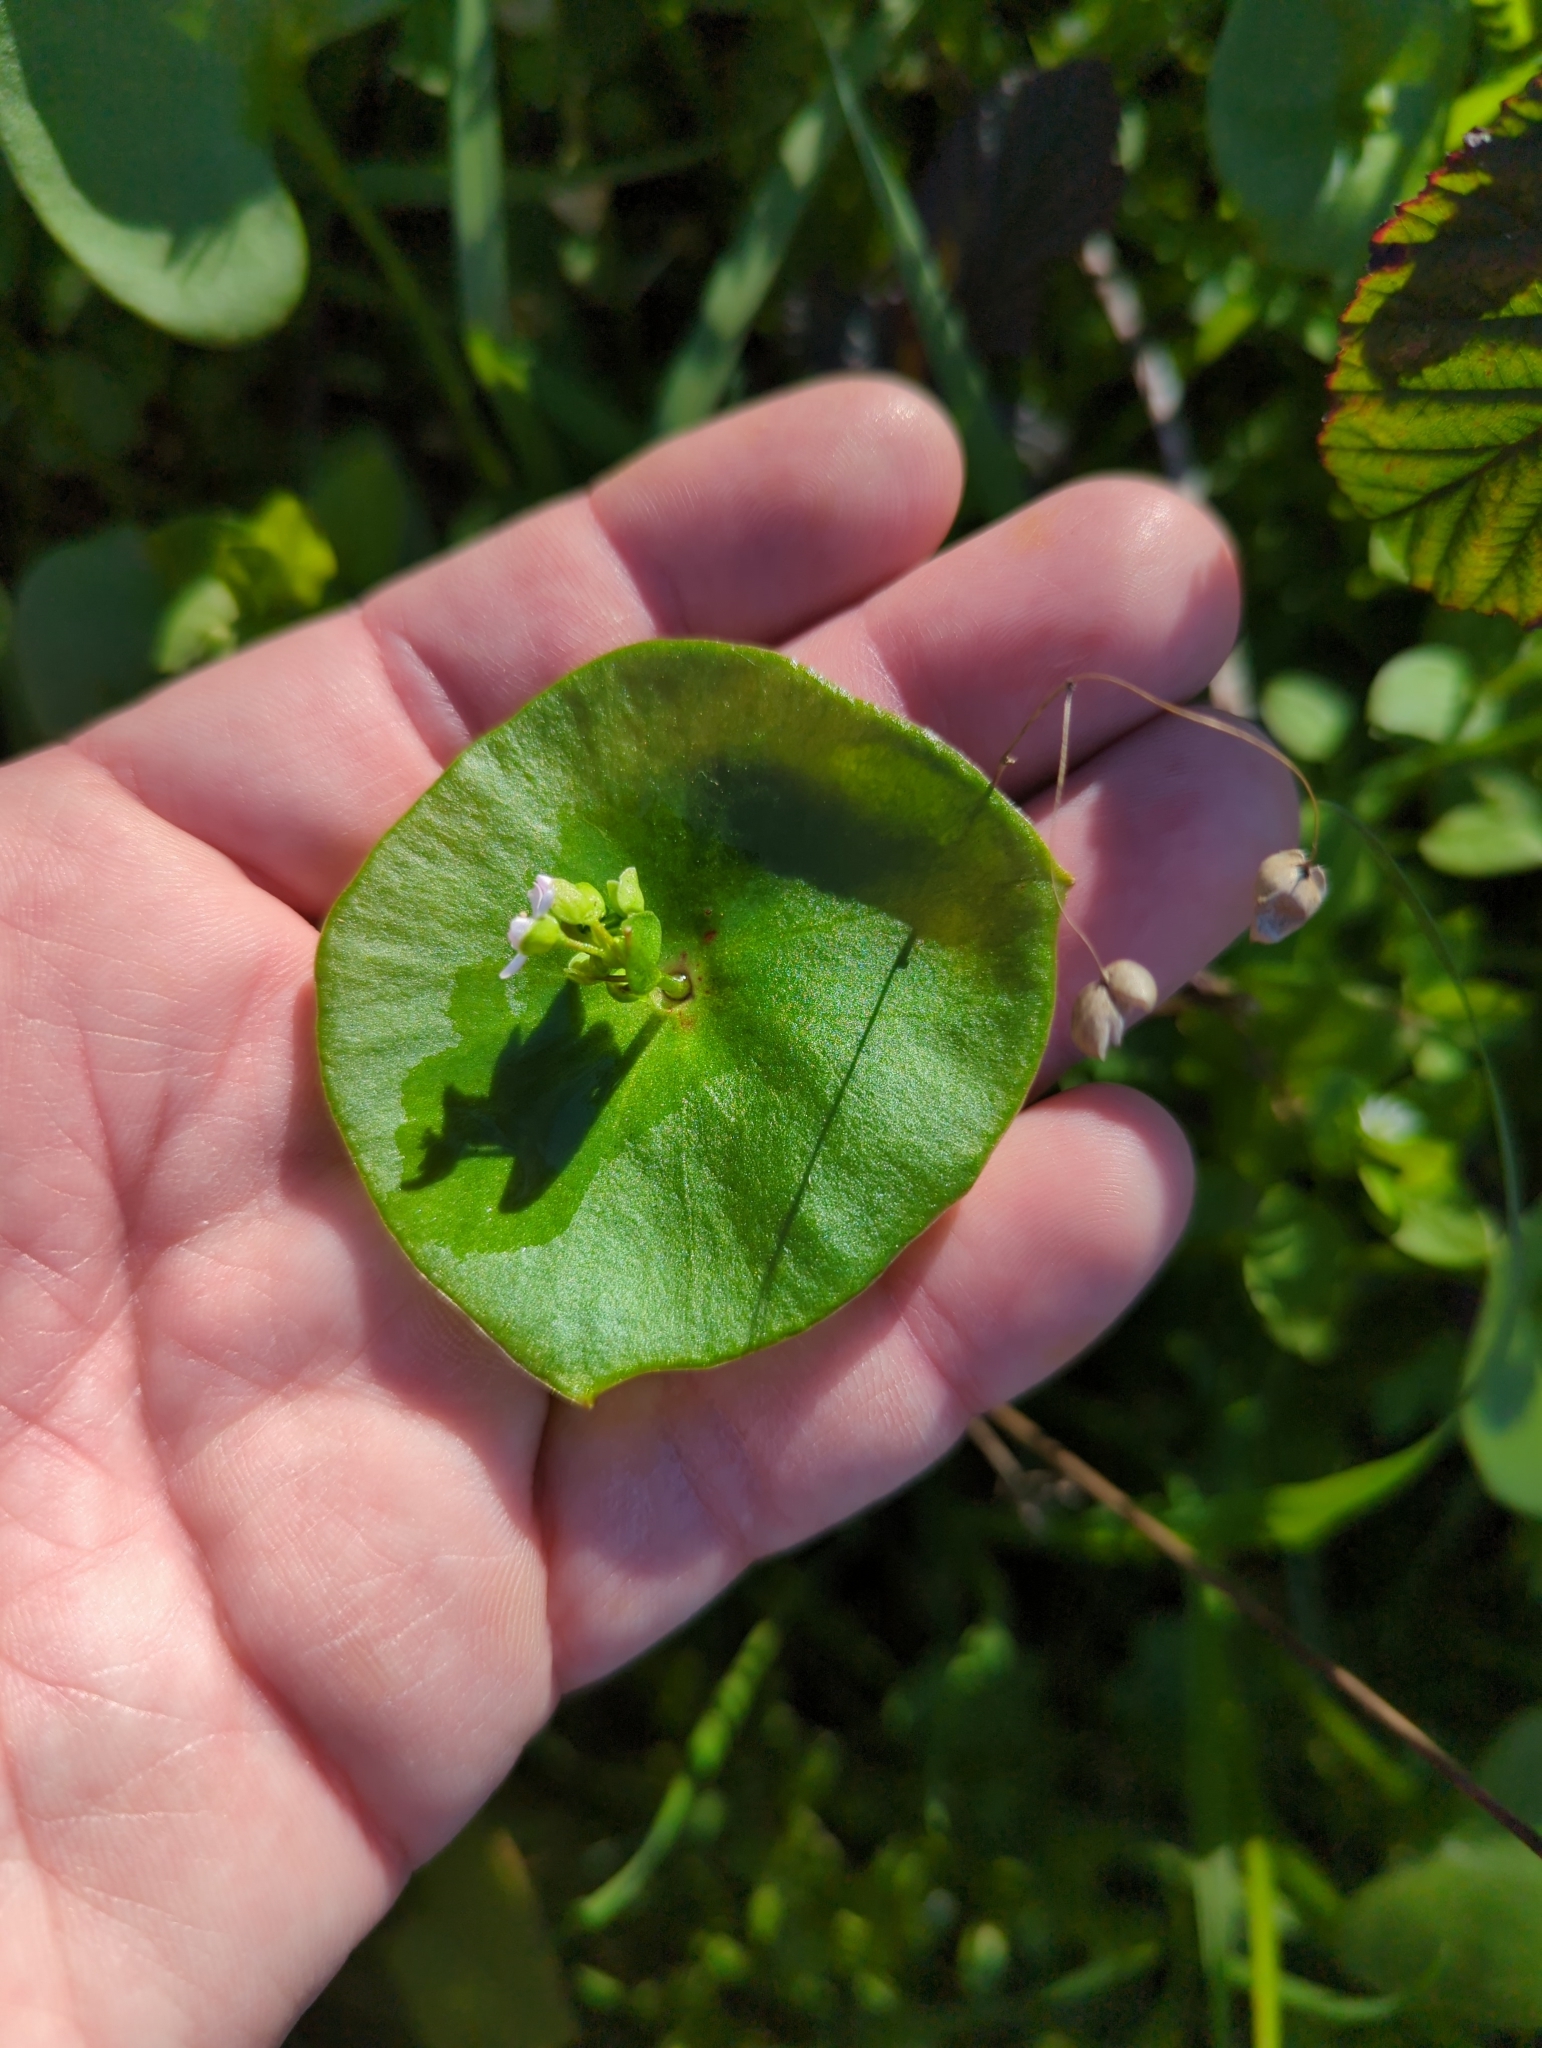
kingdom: Plantae
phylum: Tracheophyta
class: Magnoliopsida
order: Caryophyllales
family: Montiaceae
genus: Claytonia
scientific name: Claytonia perfoliata
